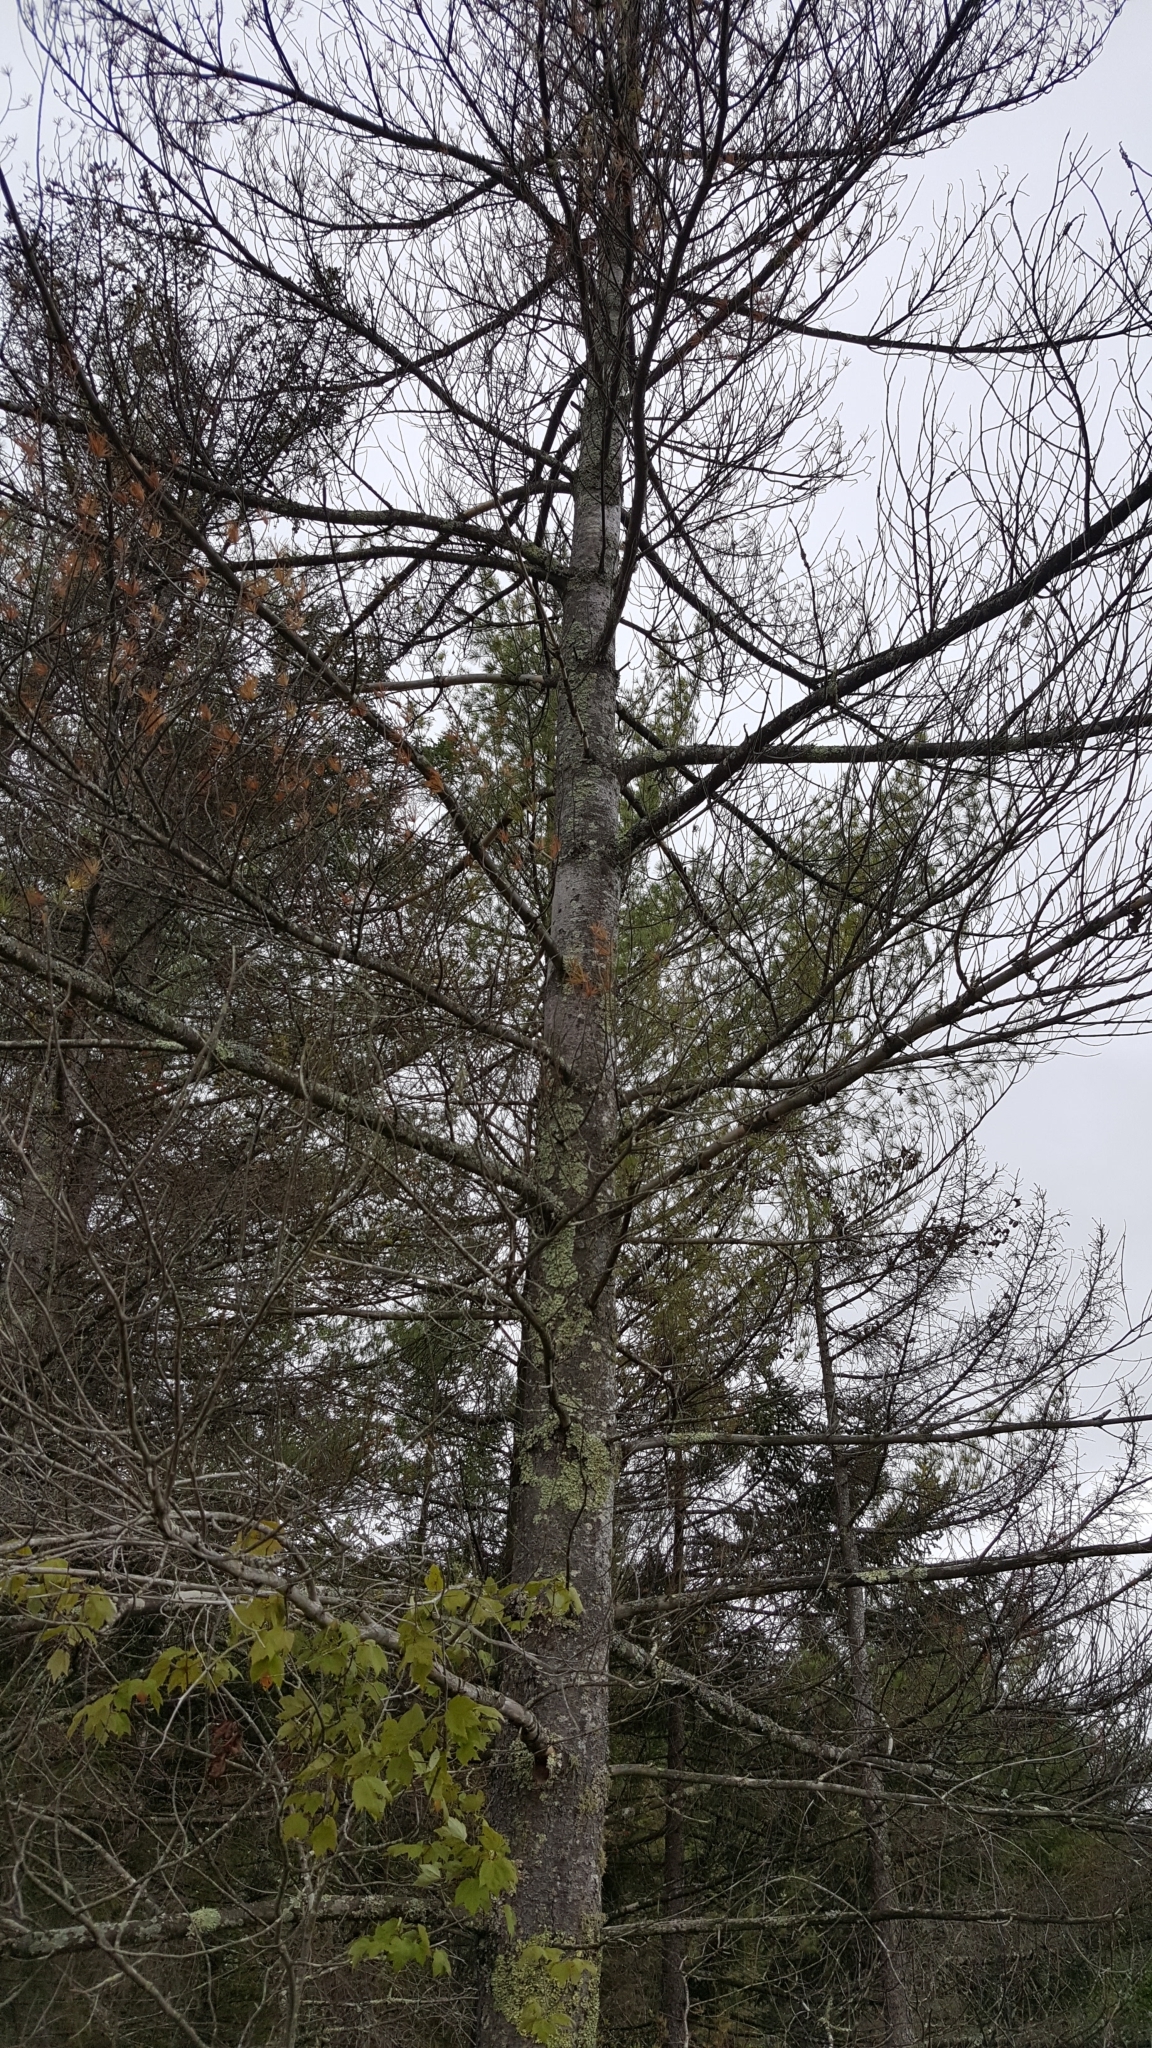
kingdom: Plantae
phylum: Tracheophyta
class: Pinopsida
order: Pinales
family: Pinaceae
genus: Pinus
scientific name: Pinus strobus
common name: Weymouth pine
